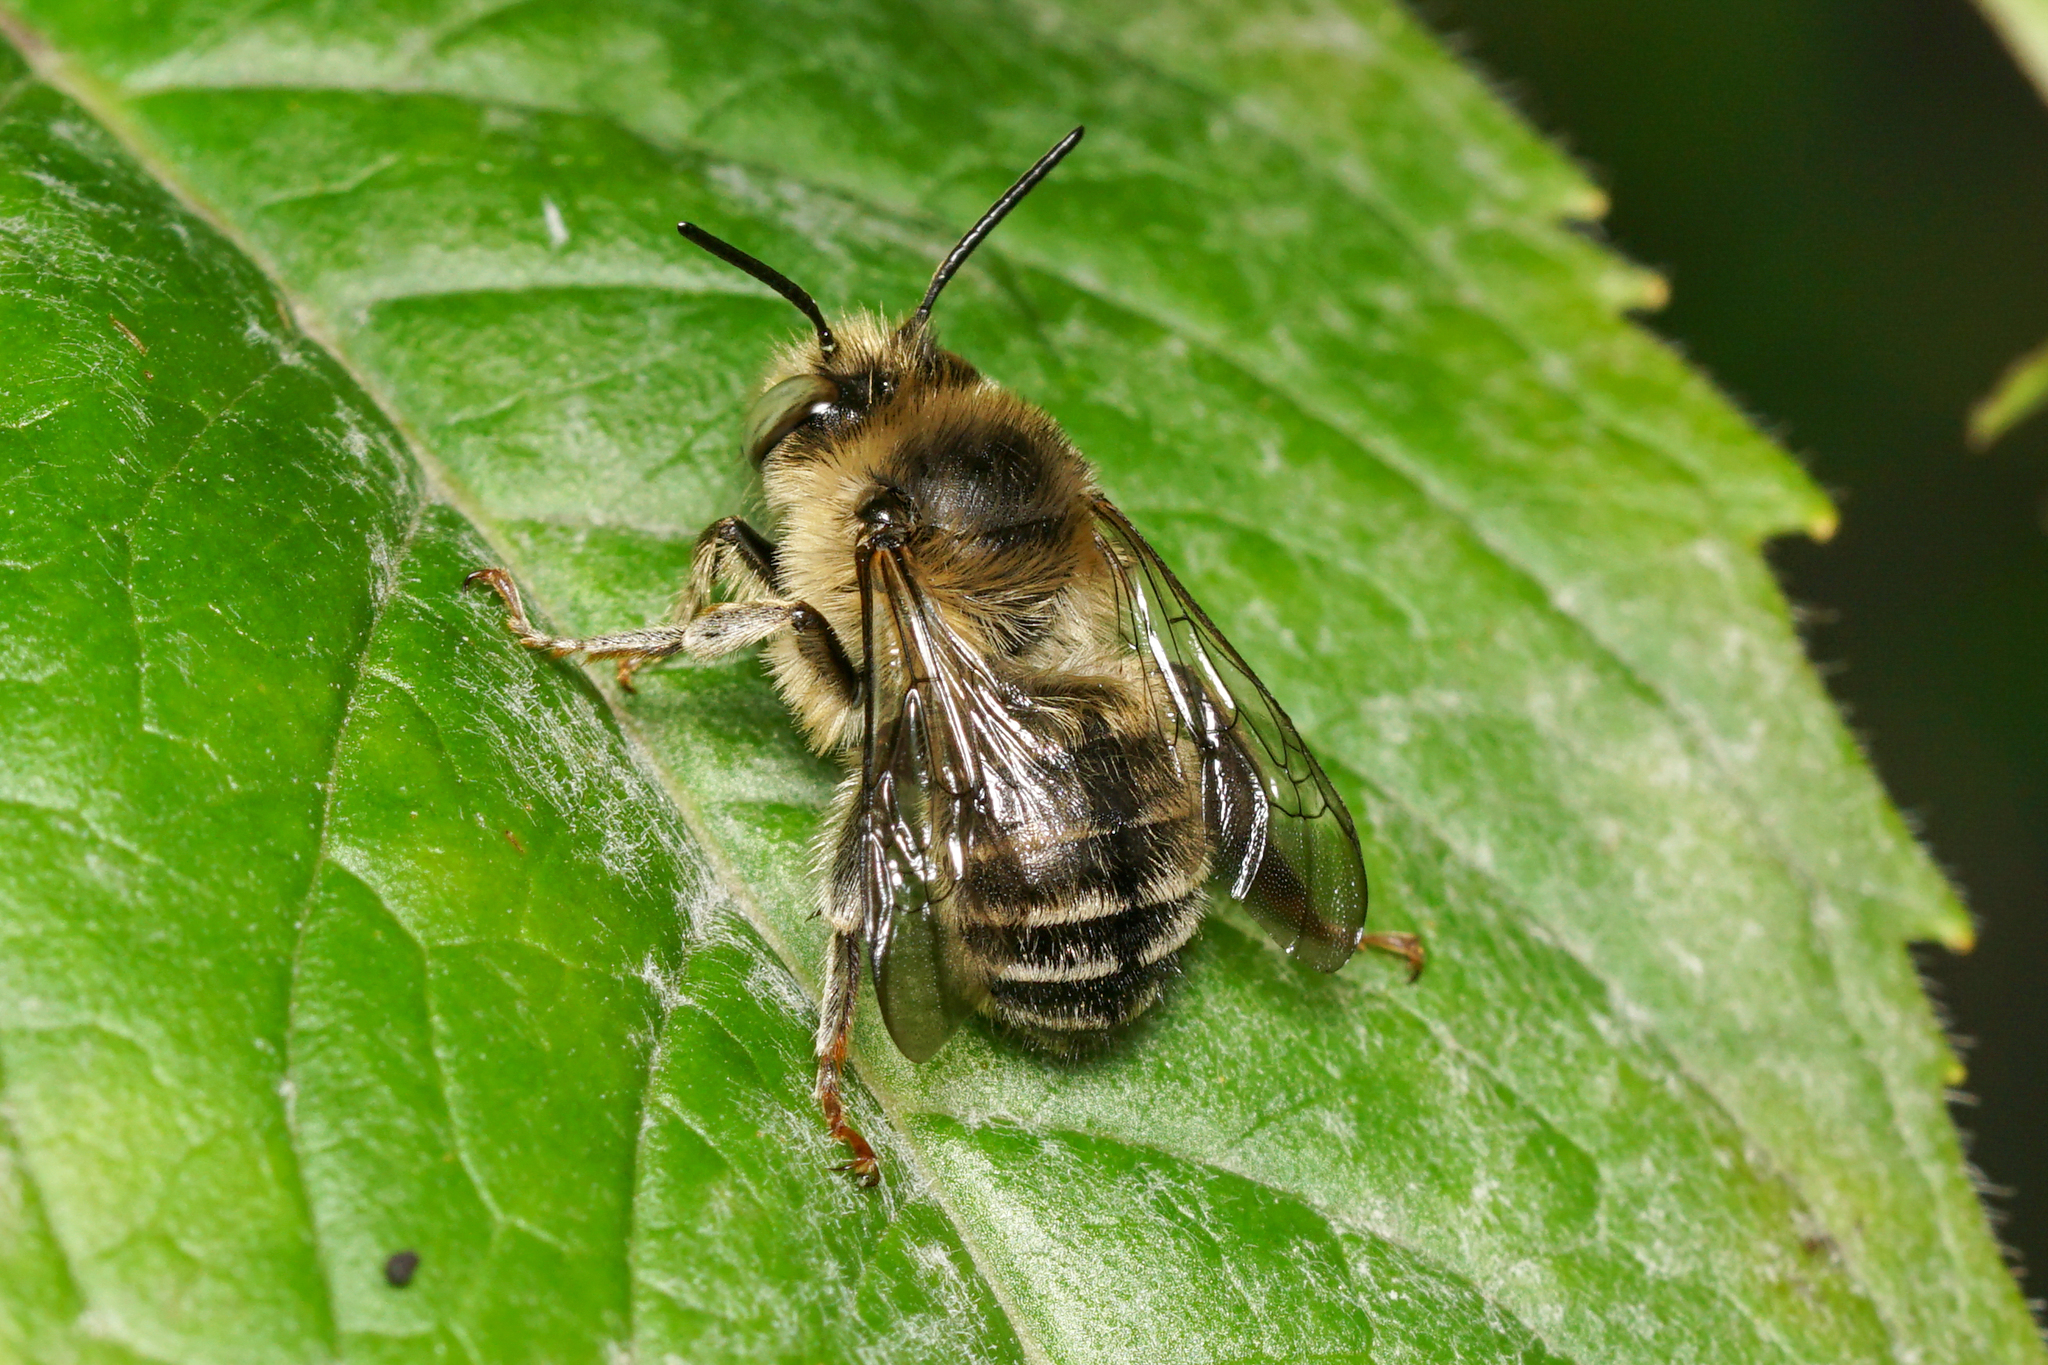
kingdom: Animalia
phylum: Arthropoda
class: Insecta
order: Hymenoptera
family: Apidae
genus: Anthophora
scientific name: Anthophora terminalis
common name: Orange-tipped wood-digger bee
